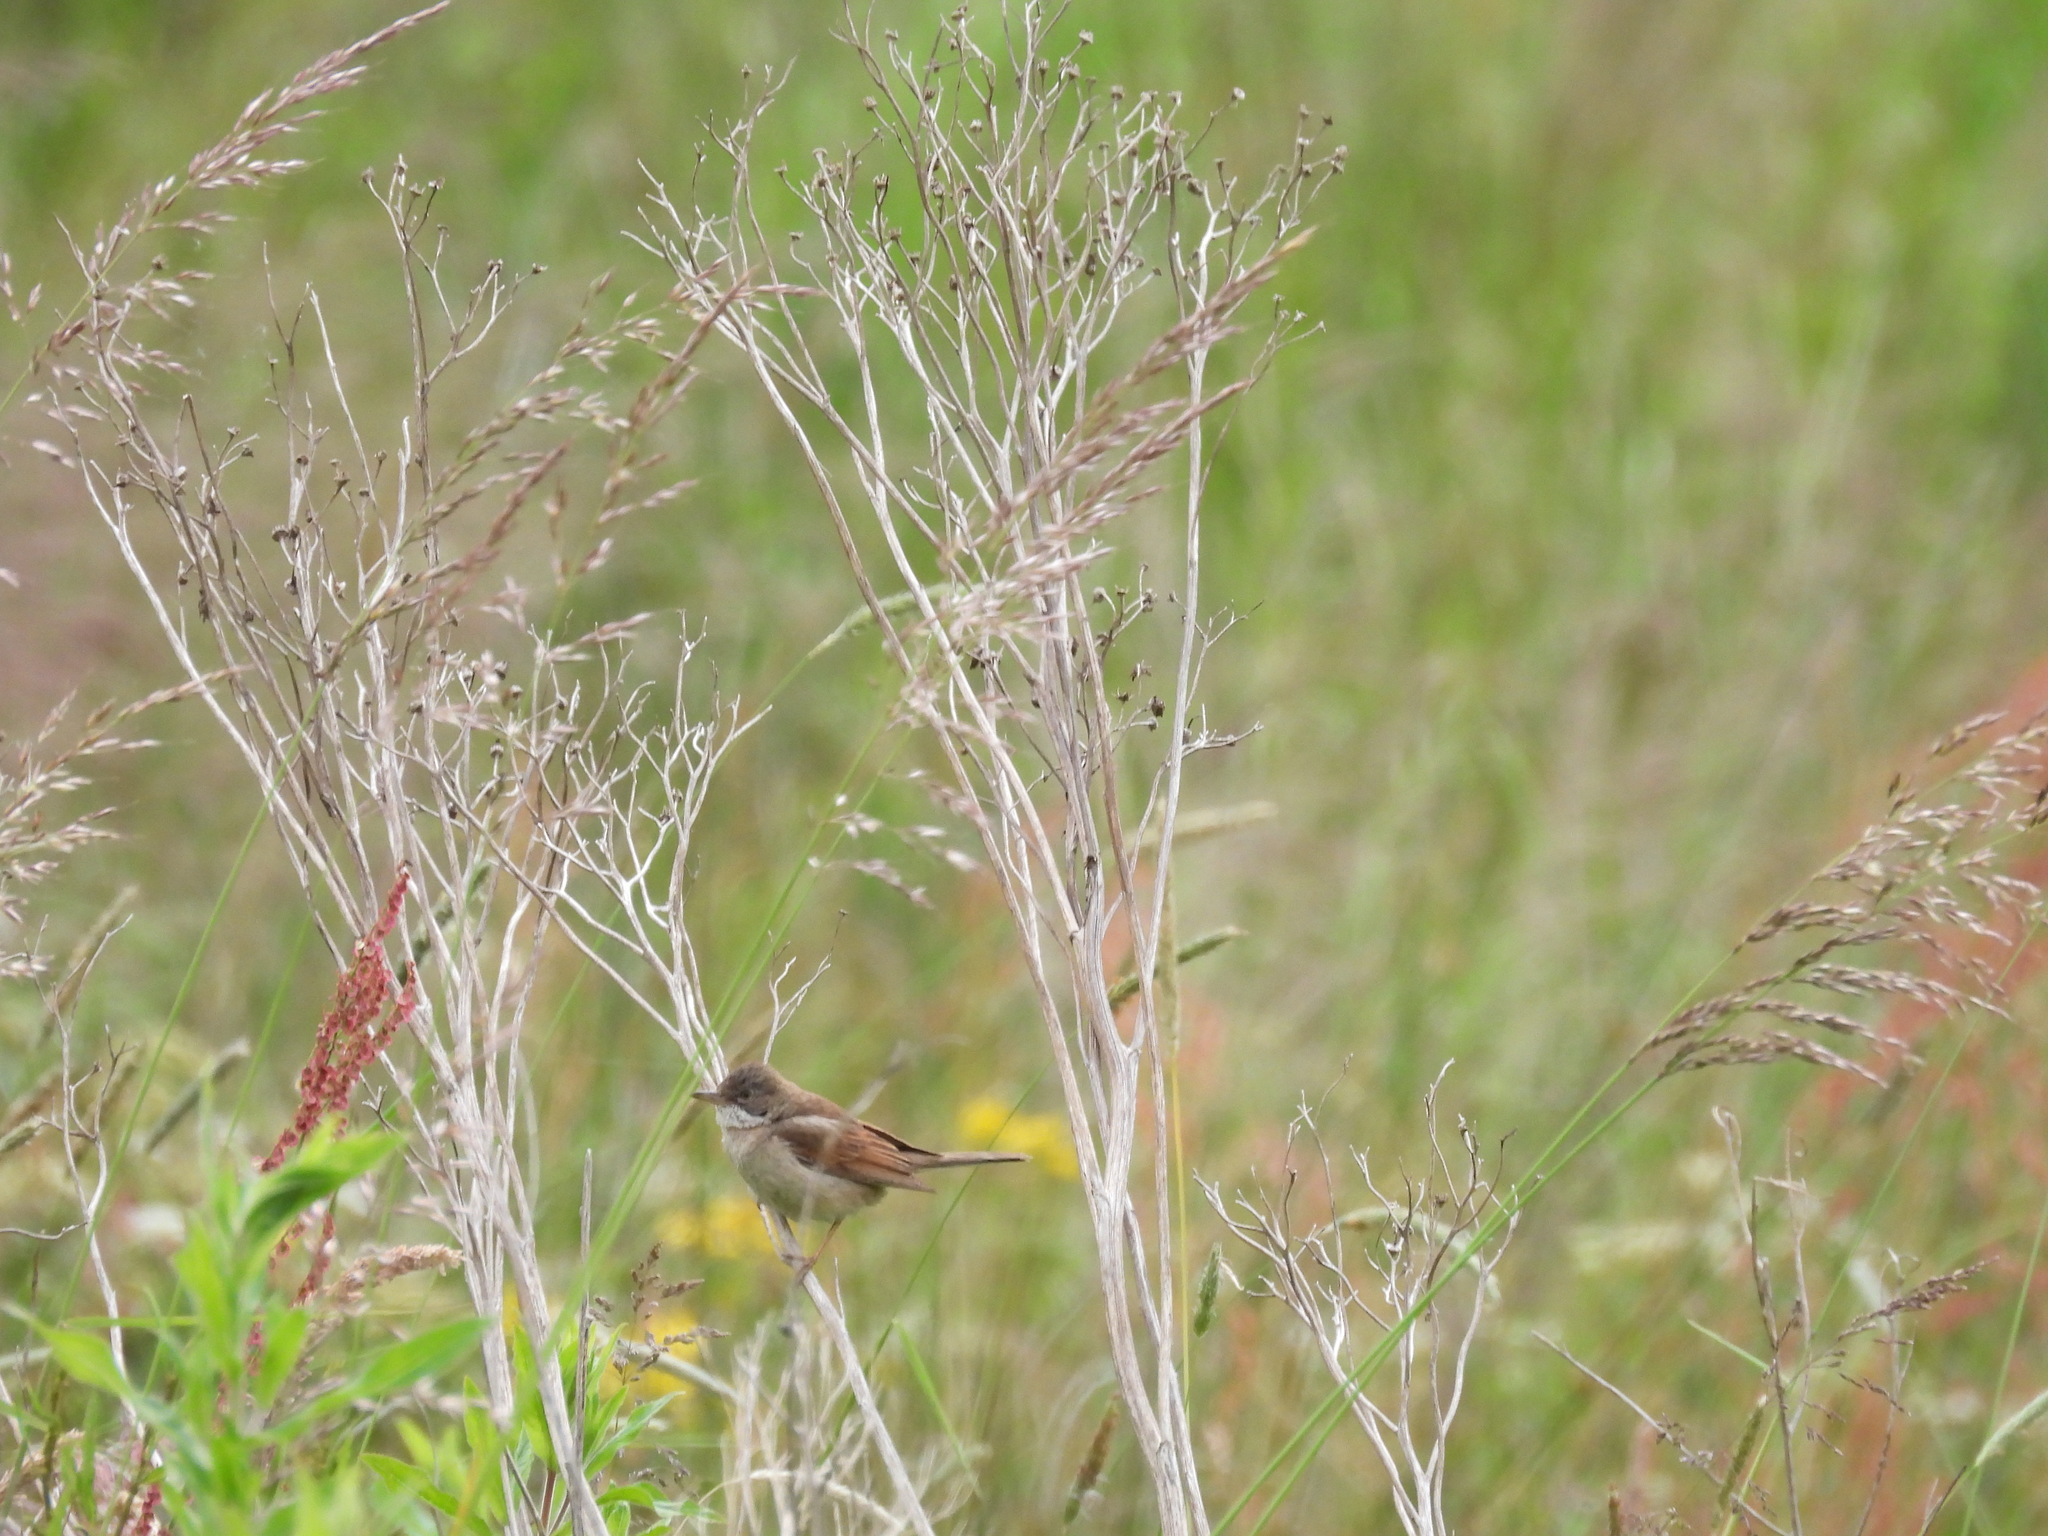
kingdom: Animalia
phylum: Chordata
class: Aves
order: Passeriformes
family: Sylviidae
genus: Sylvia
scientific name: Sylvia communis
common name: Common whitethroat
